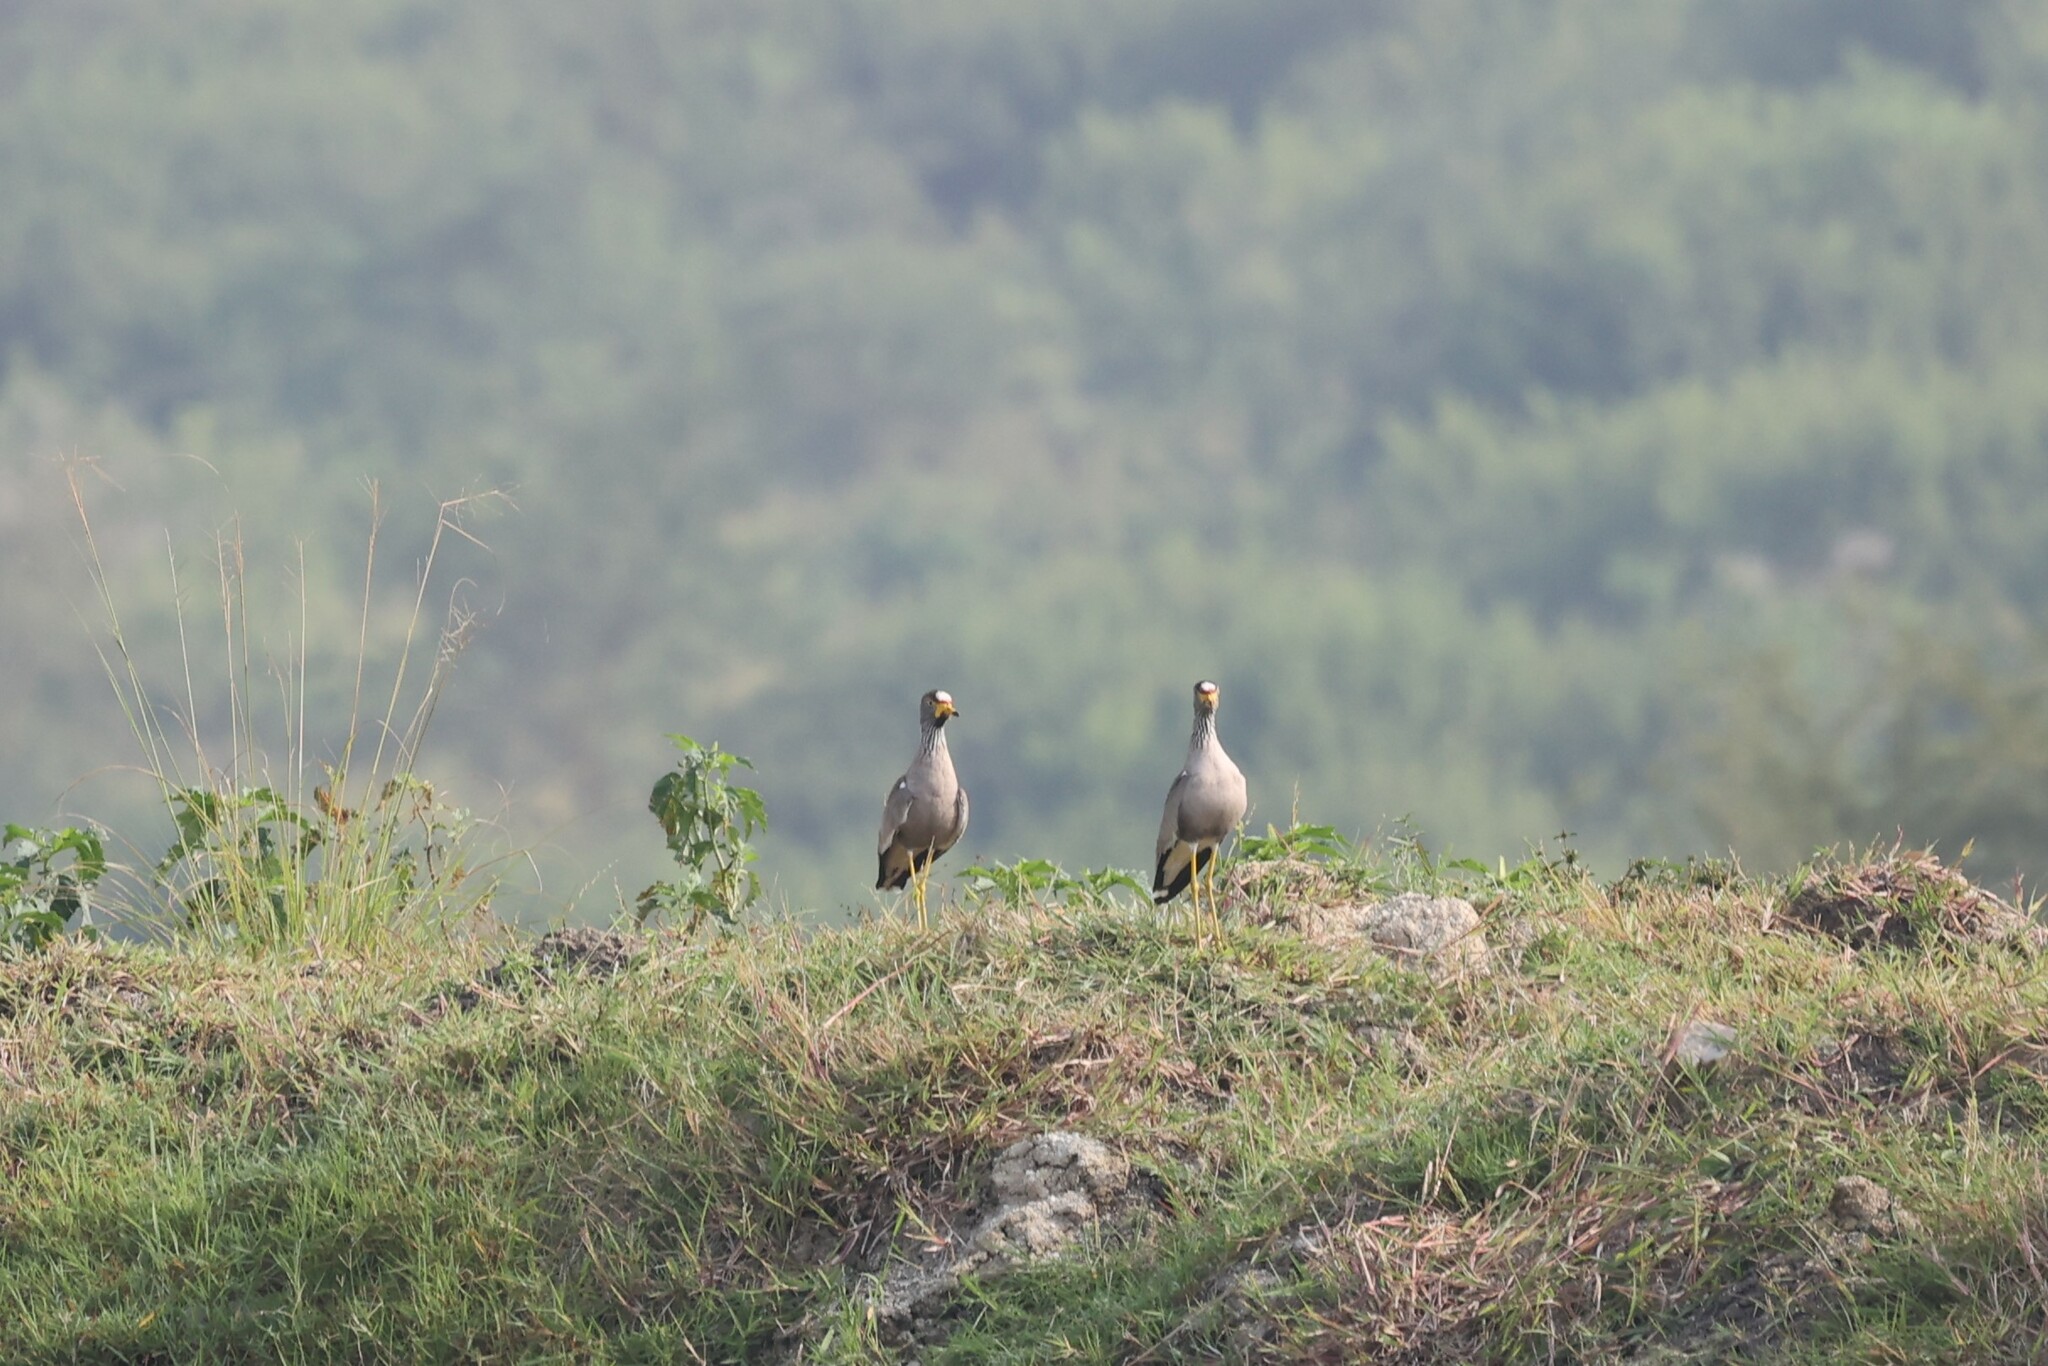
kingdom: Animalia
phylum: Chordata
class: Aves
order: Charadriiformes
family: Charadriidae
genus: Vanellus
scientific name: Vanellus senegallus
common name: African wattled lapwing
